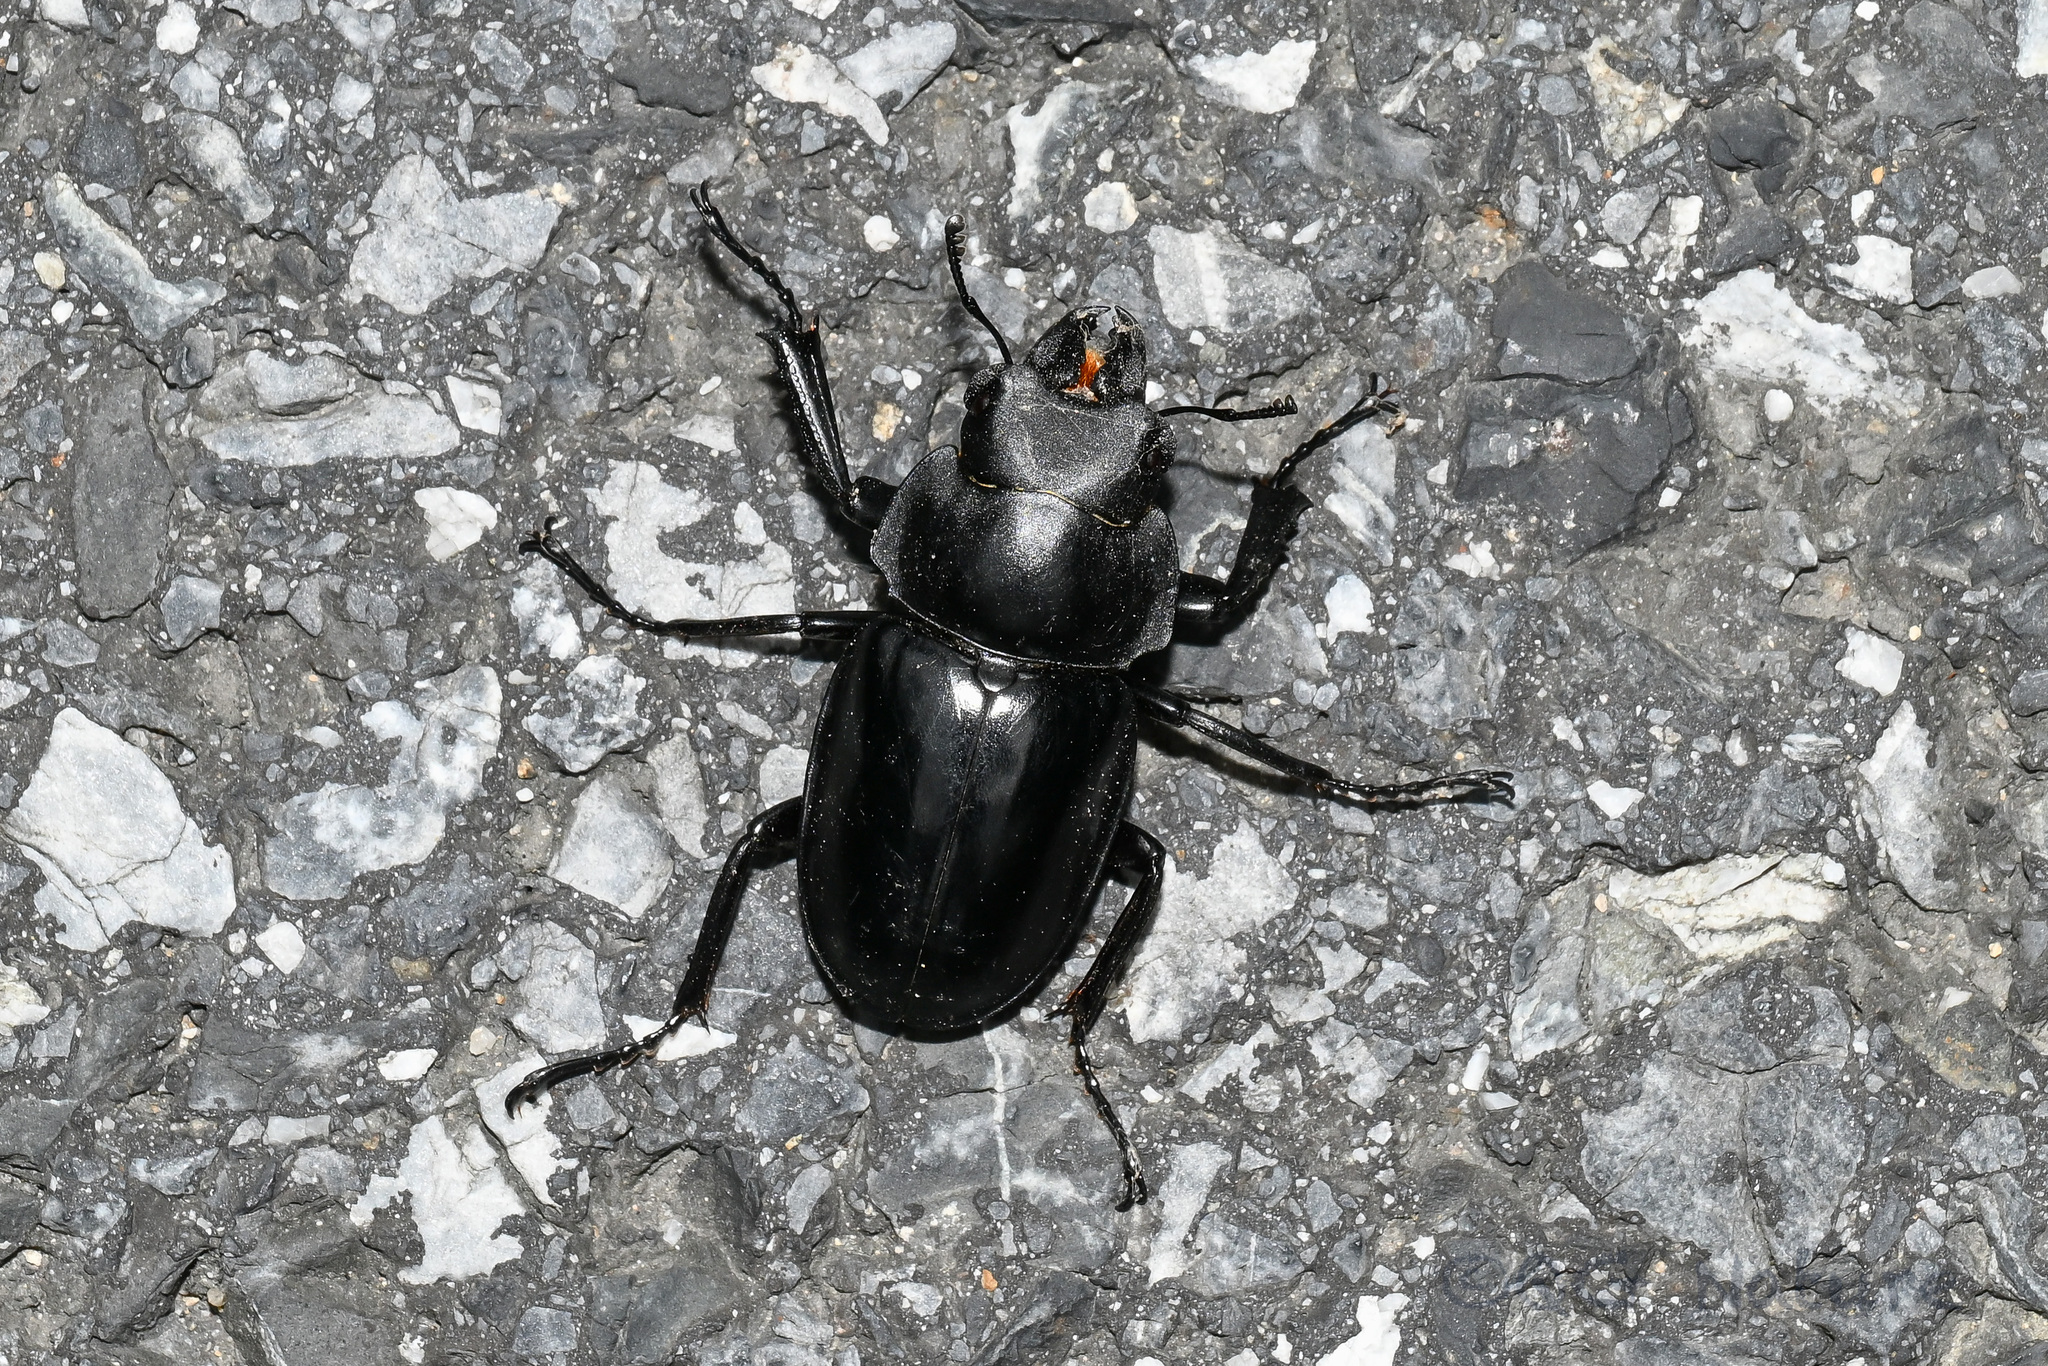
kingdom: Animalia
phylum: Arthropoda
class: Insecta
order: Coleoptera
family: Lucanidae
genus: Neolucanus
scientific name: Neolucanus nitidus
